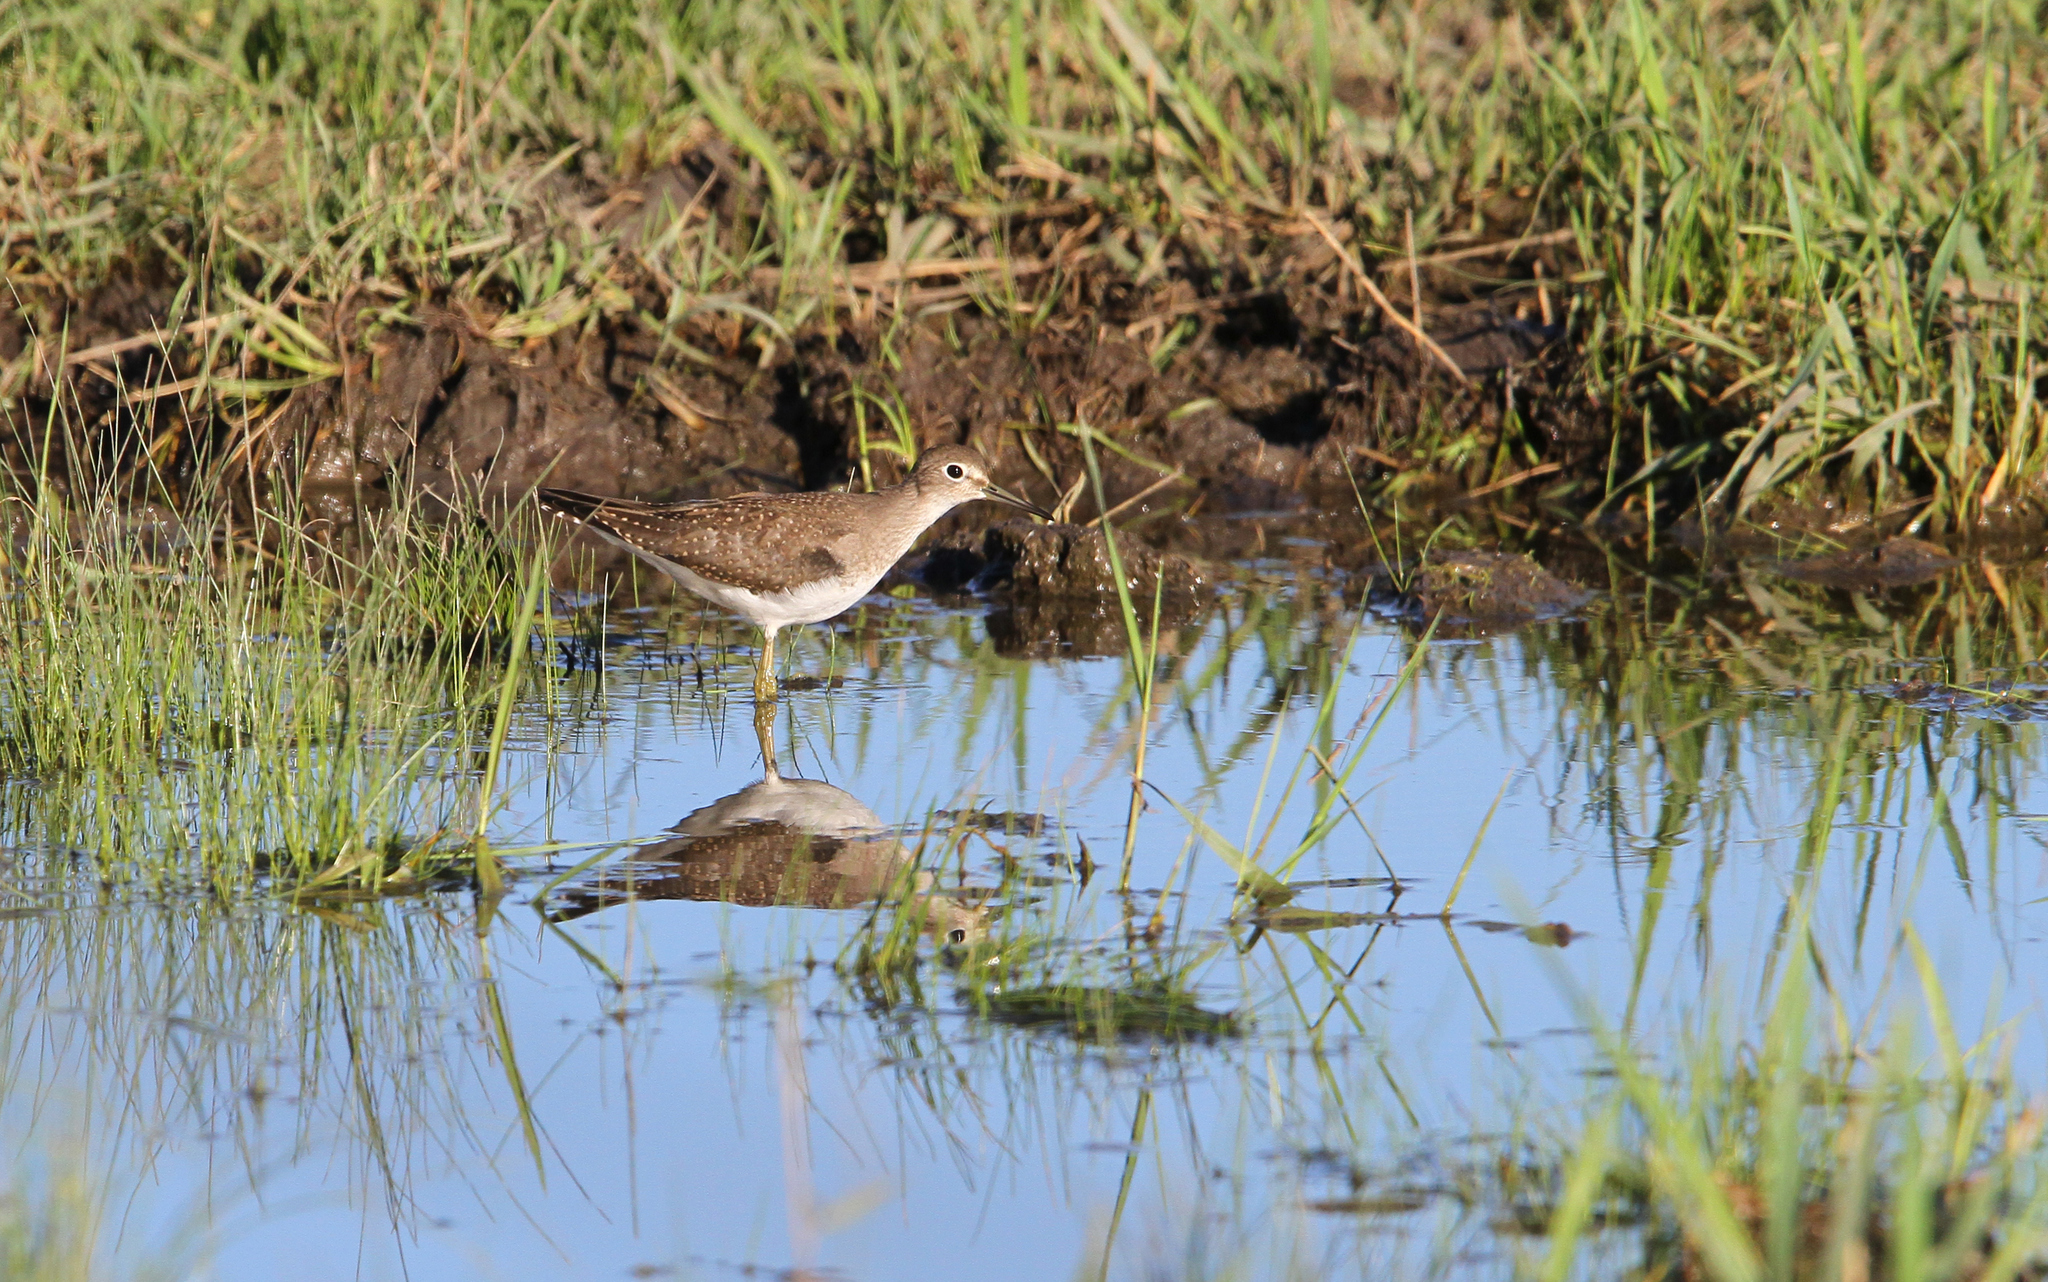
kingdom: Animalia
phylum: Chordata
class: Aves
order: Charadriiformes
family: Scolopacidae
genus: Tringa
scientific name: Tringa solitaria
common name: Solitary sandpiper
